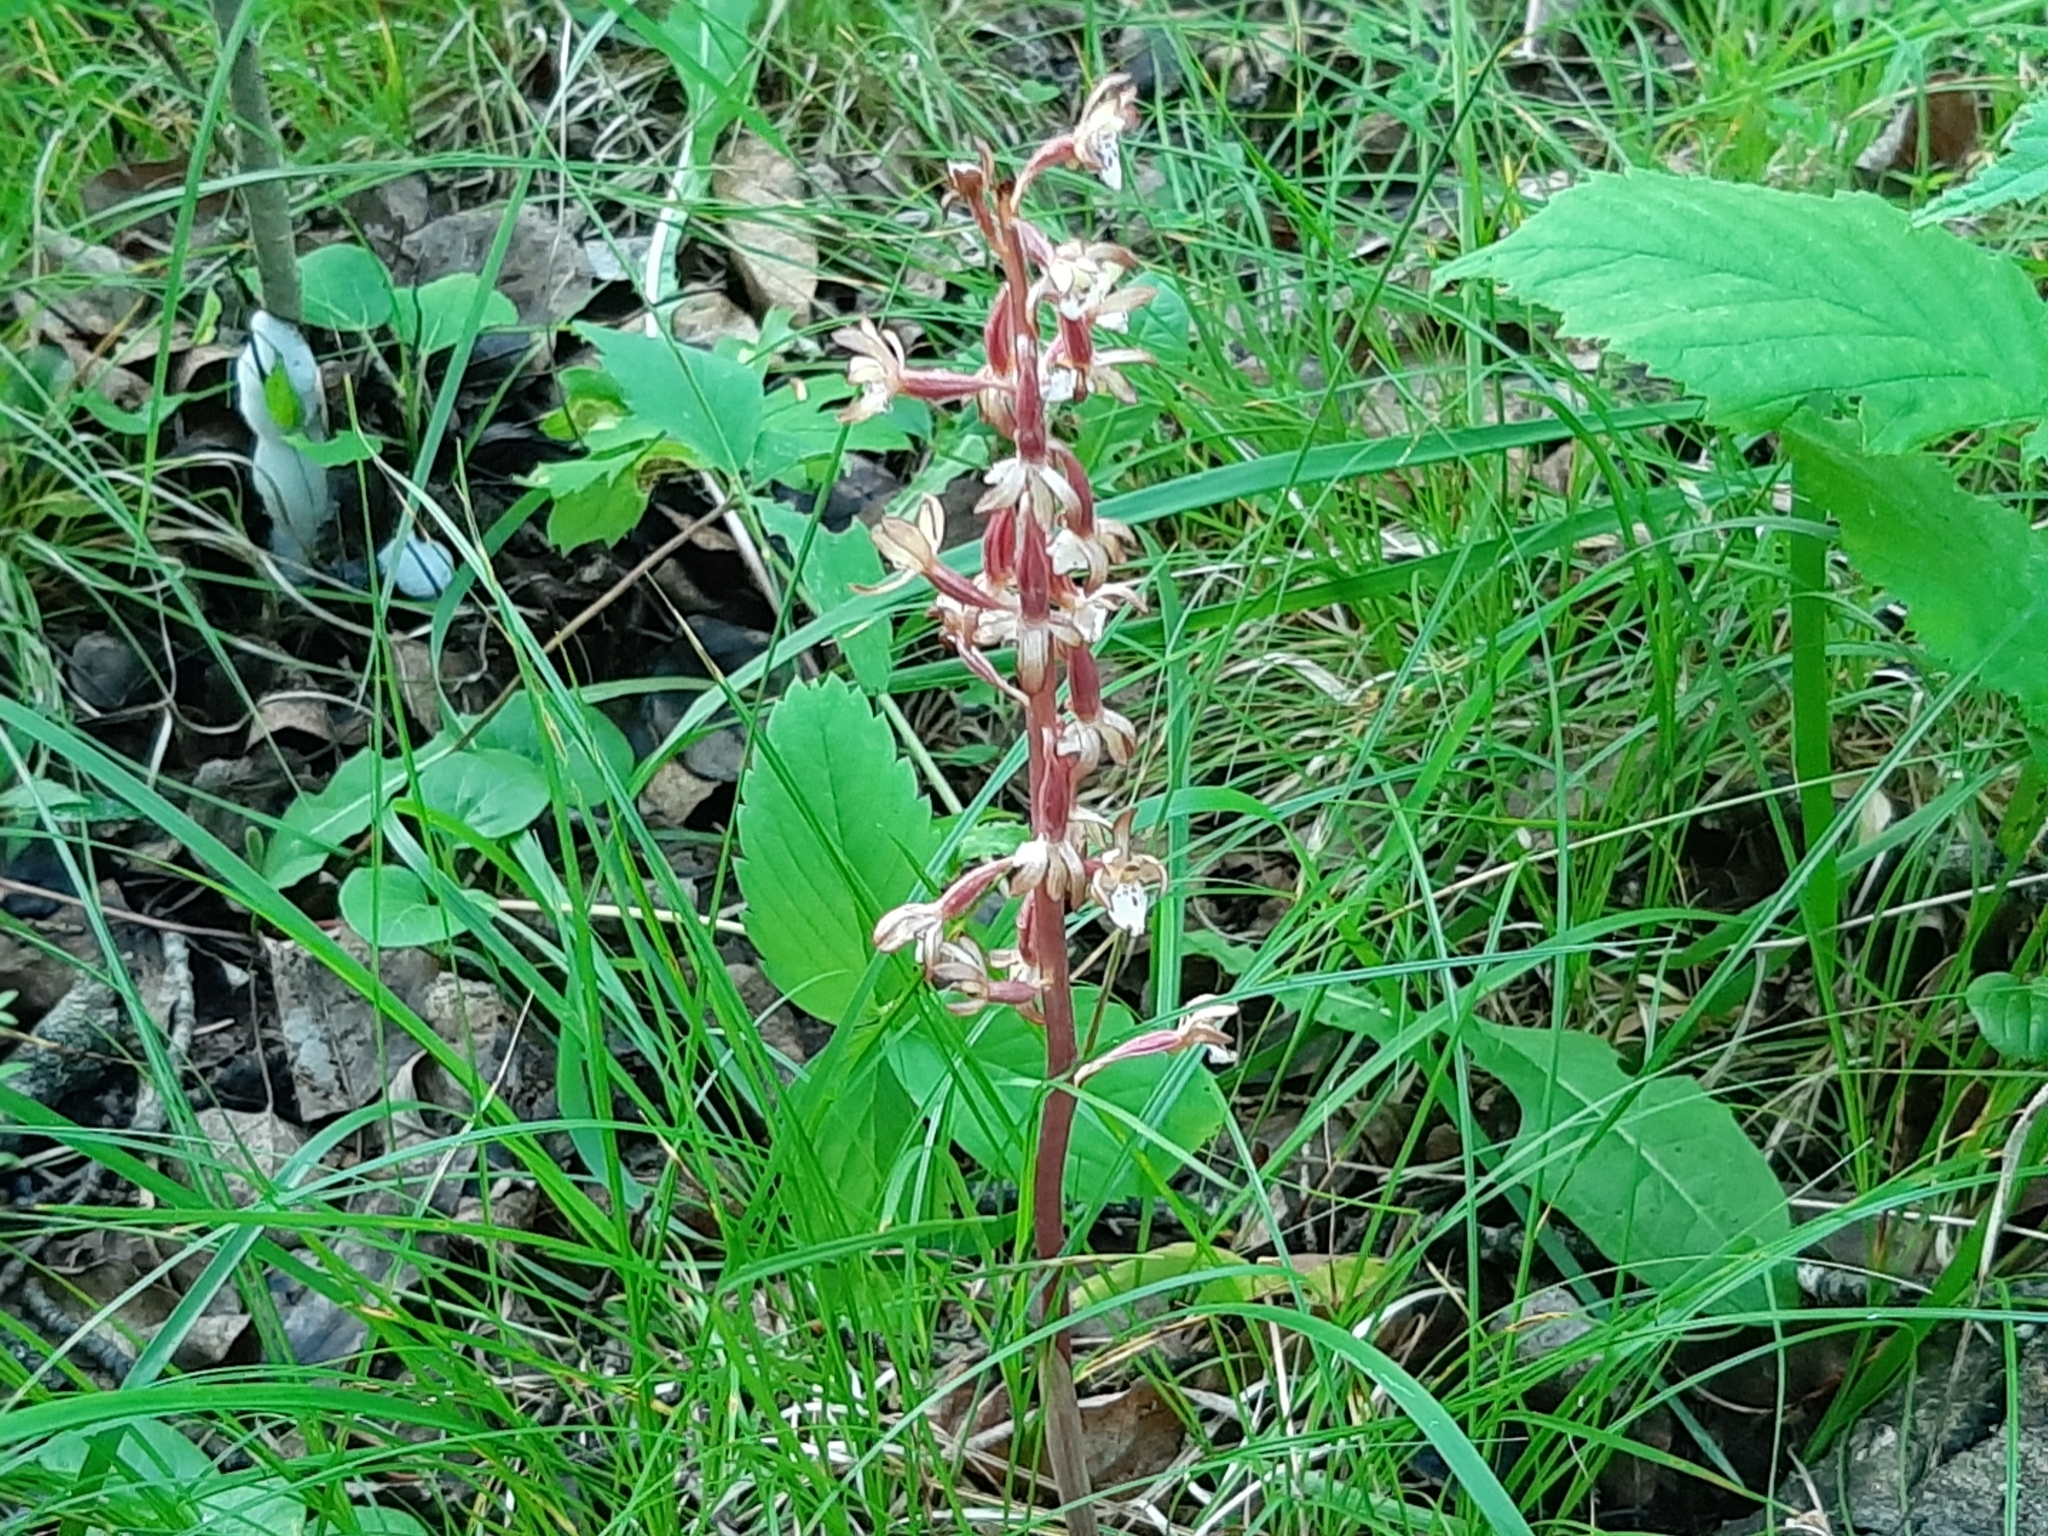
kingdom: Plantae
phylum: Tracheophyta
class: Liliopsida
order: Asparagales
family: Orchidaceae
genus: Corallorhiza
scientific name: Corallorhiza maculata
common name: Spotted coralroot
